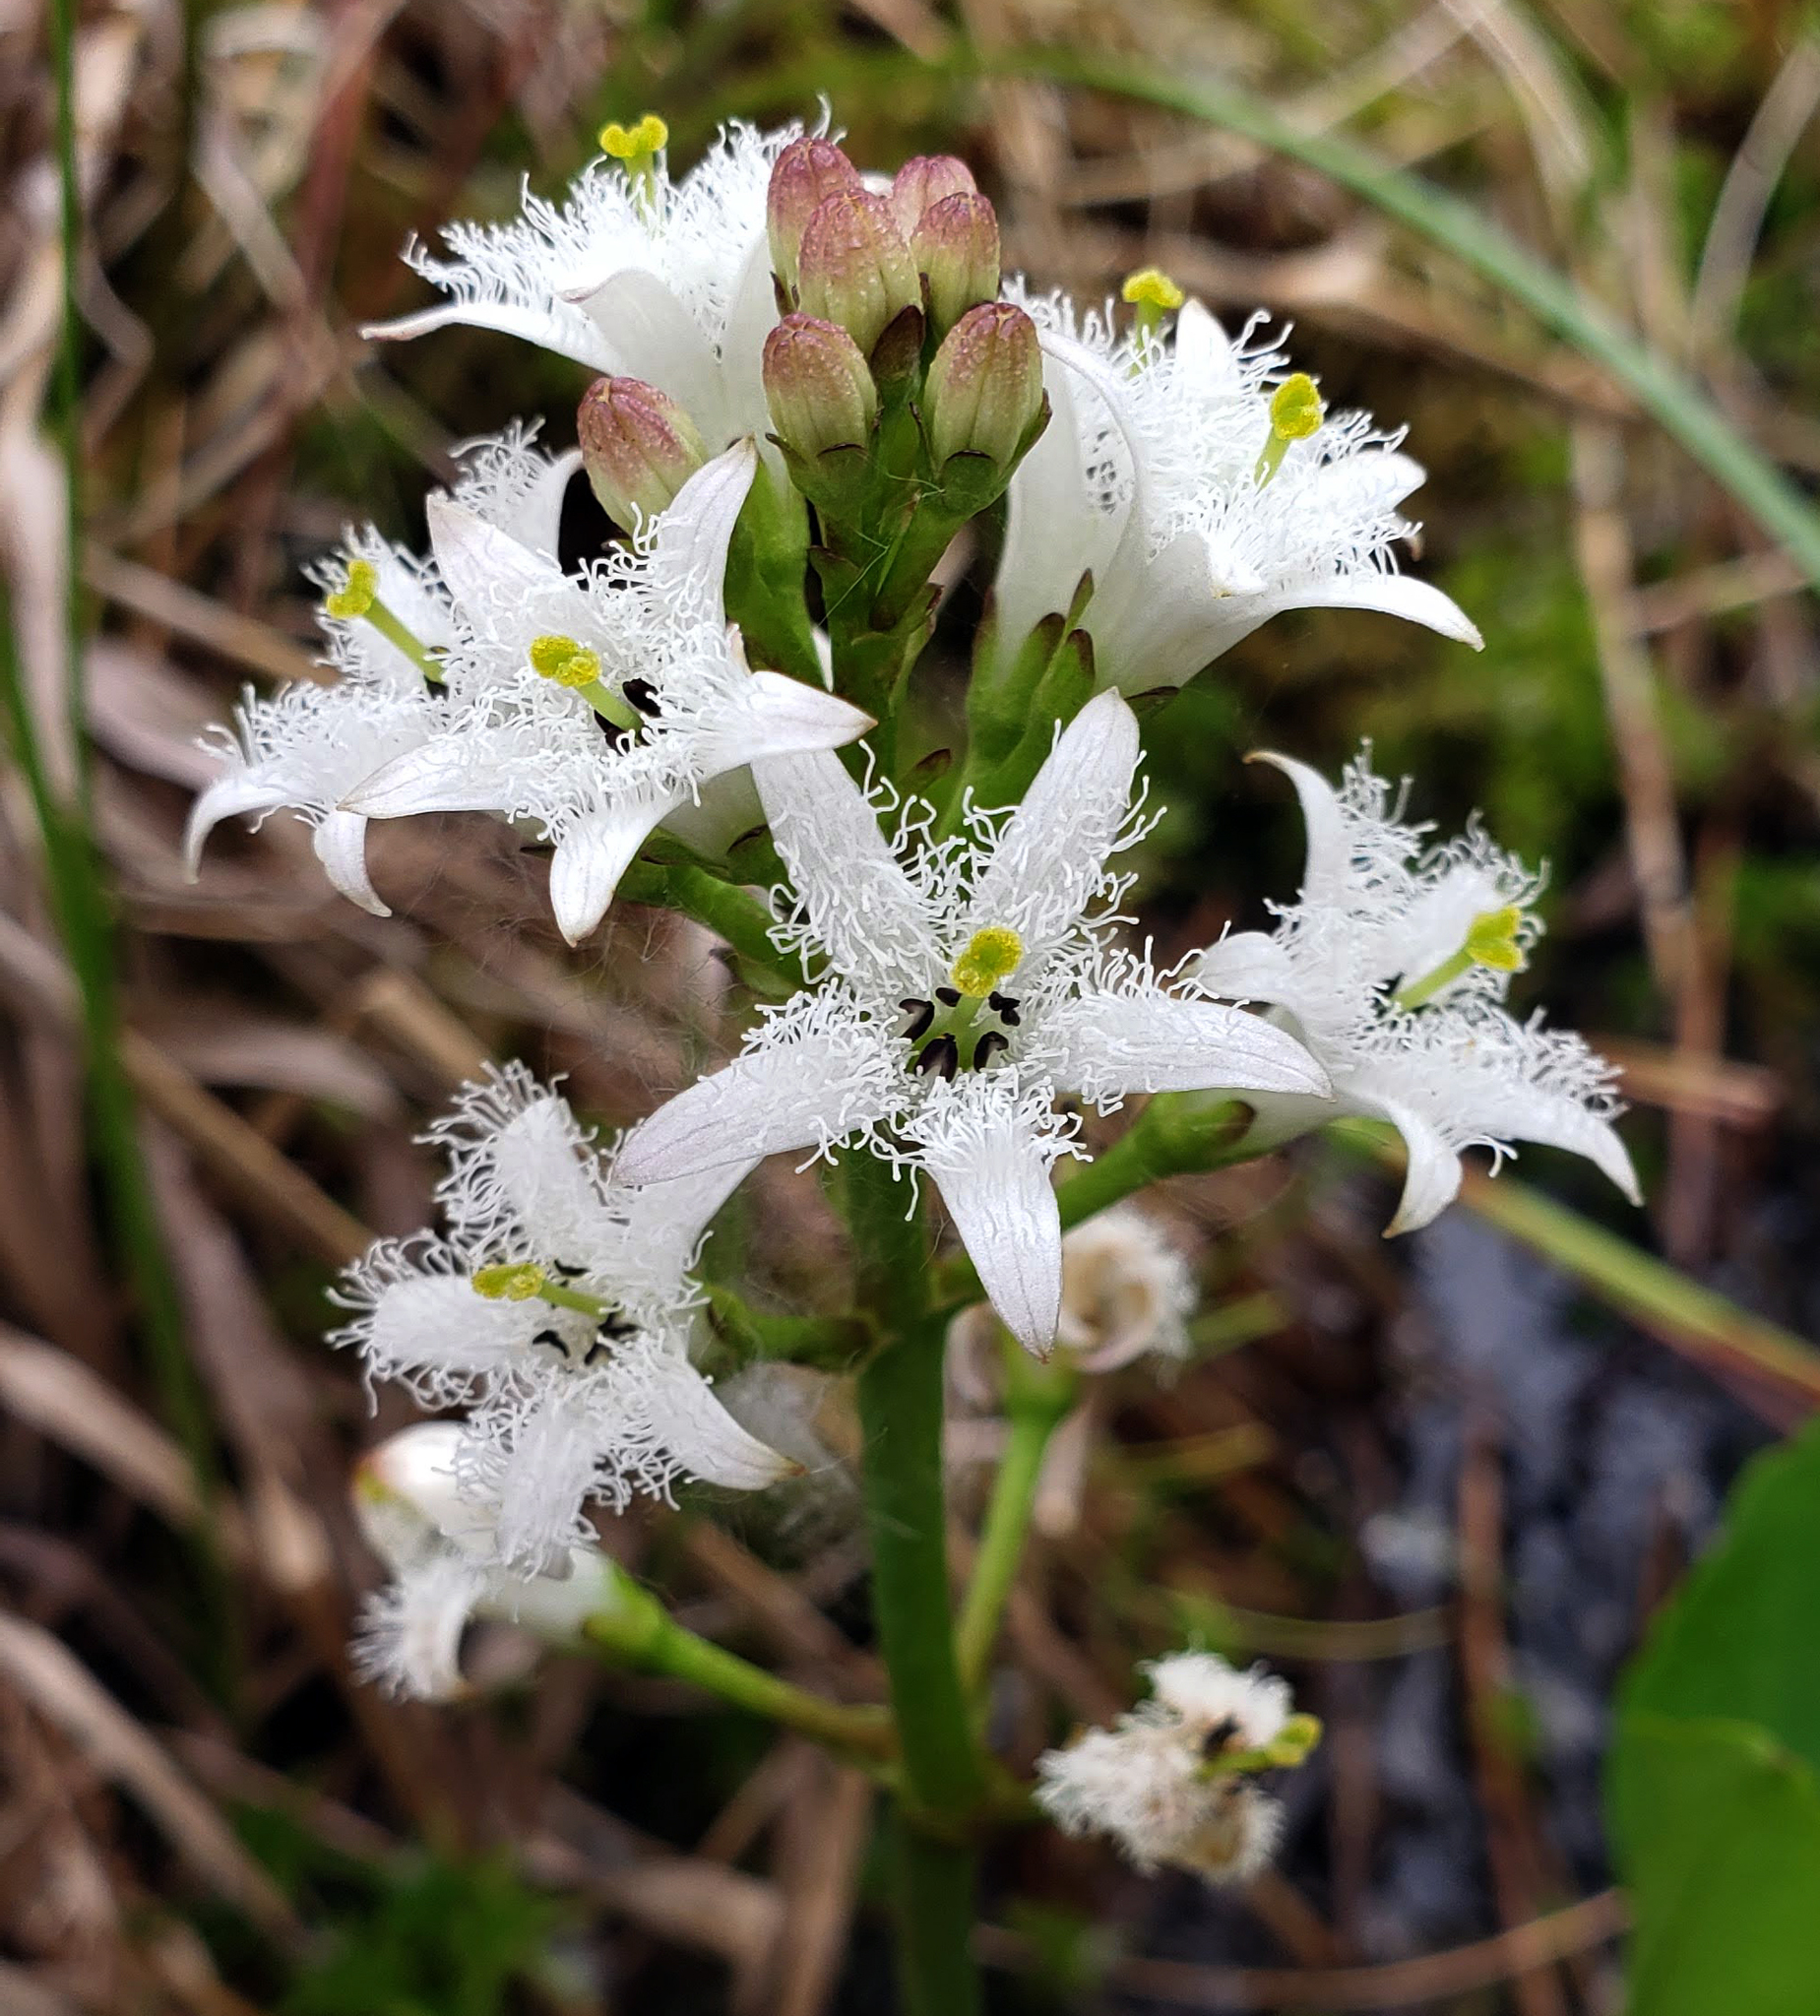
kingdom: Plantae
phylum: Tracheophyta
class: Magnoliopsida
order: Asterales
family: Menyanthaceae
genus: Menyanthes
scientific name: Menyanthes trifoliata
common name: Bogbean
